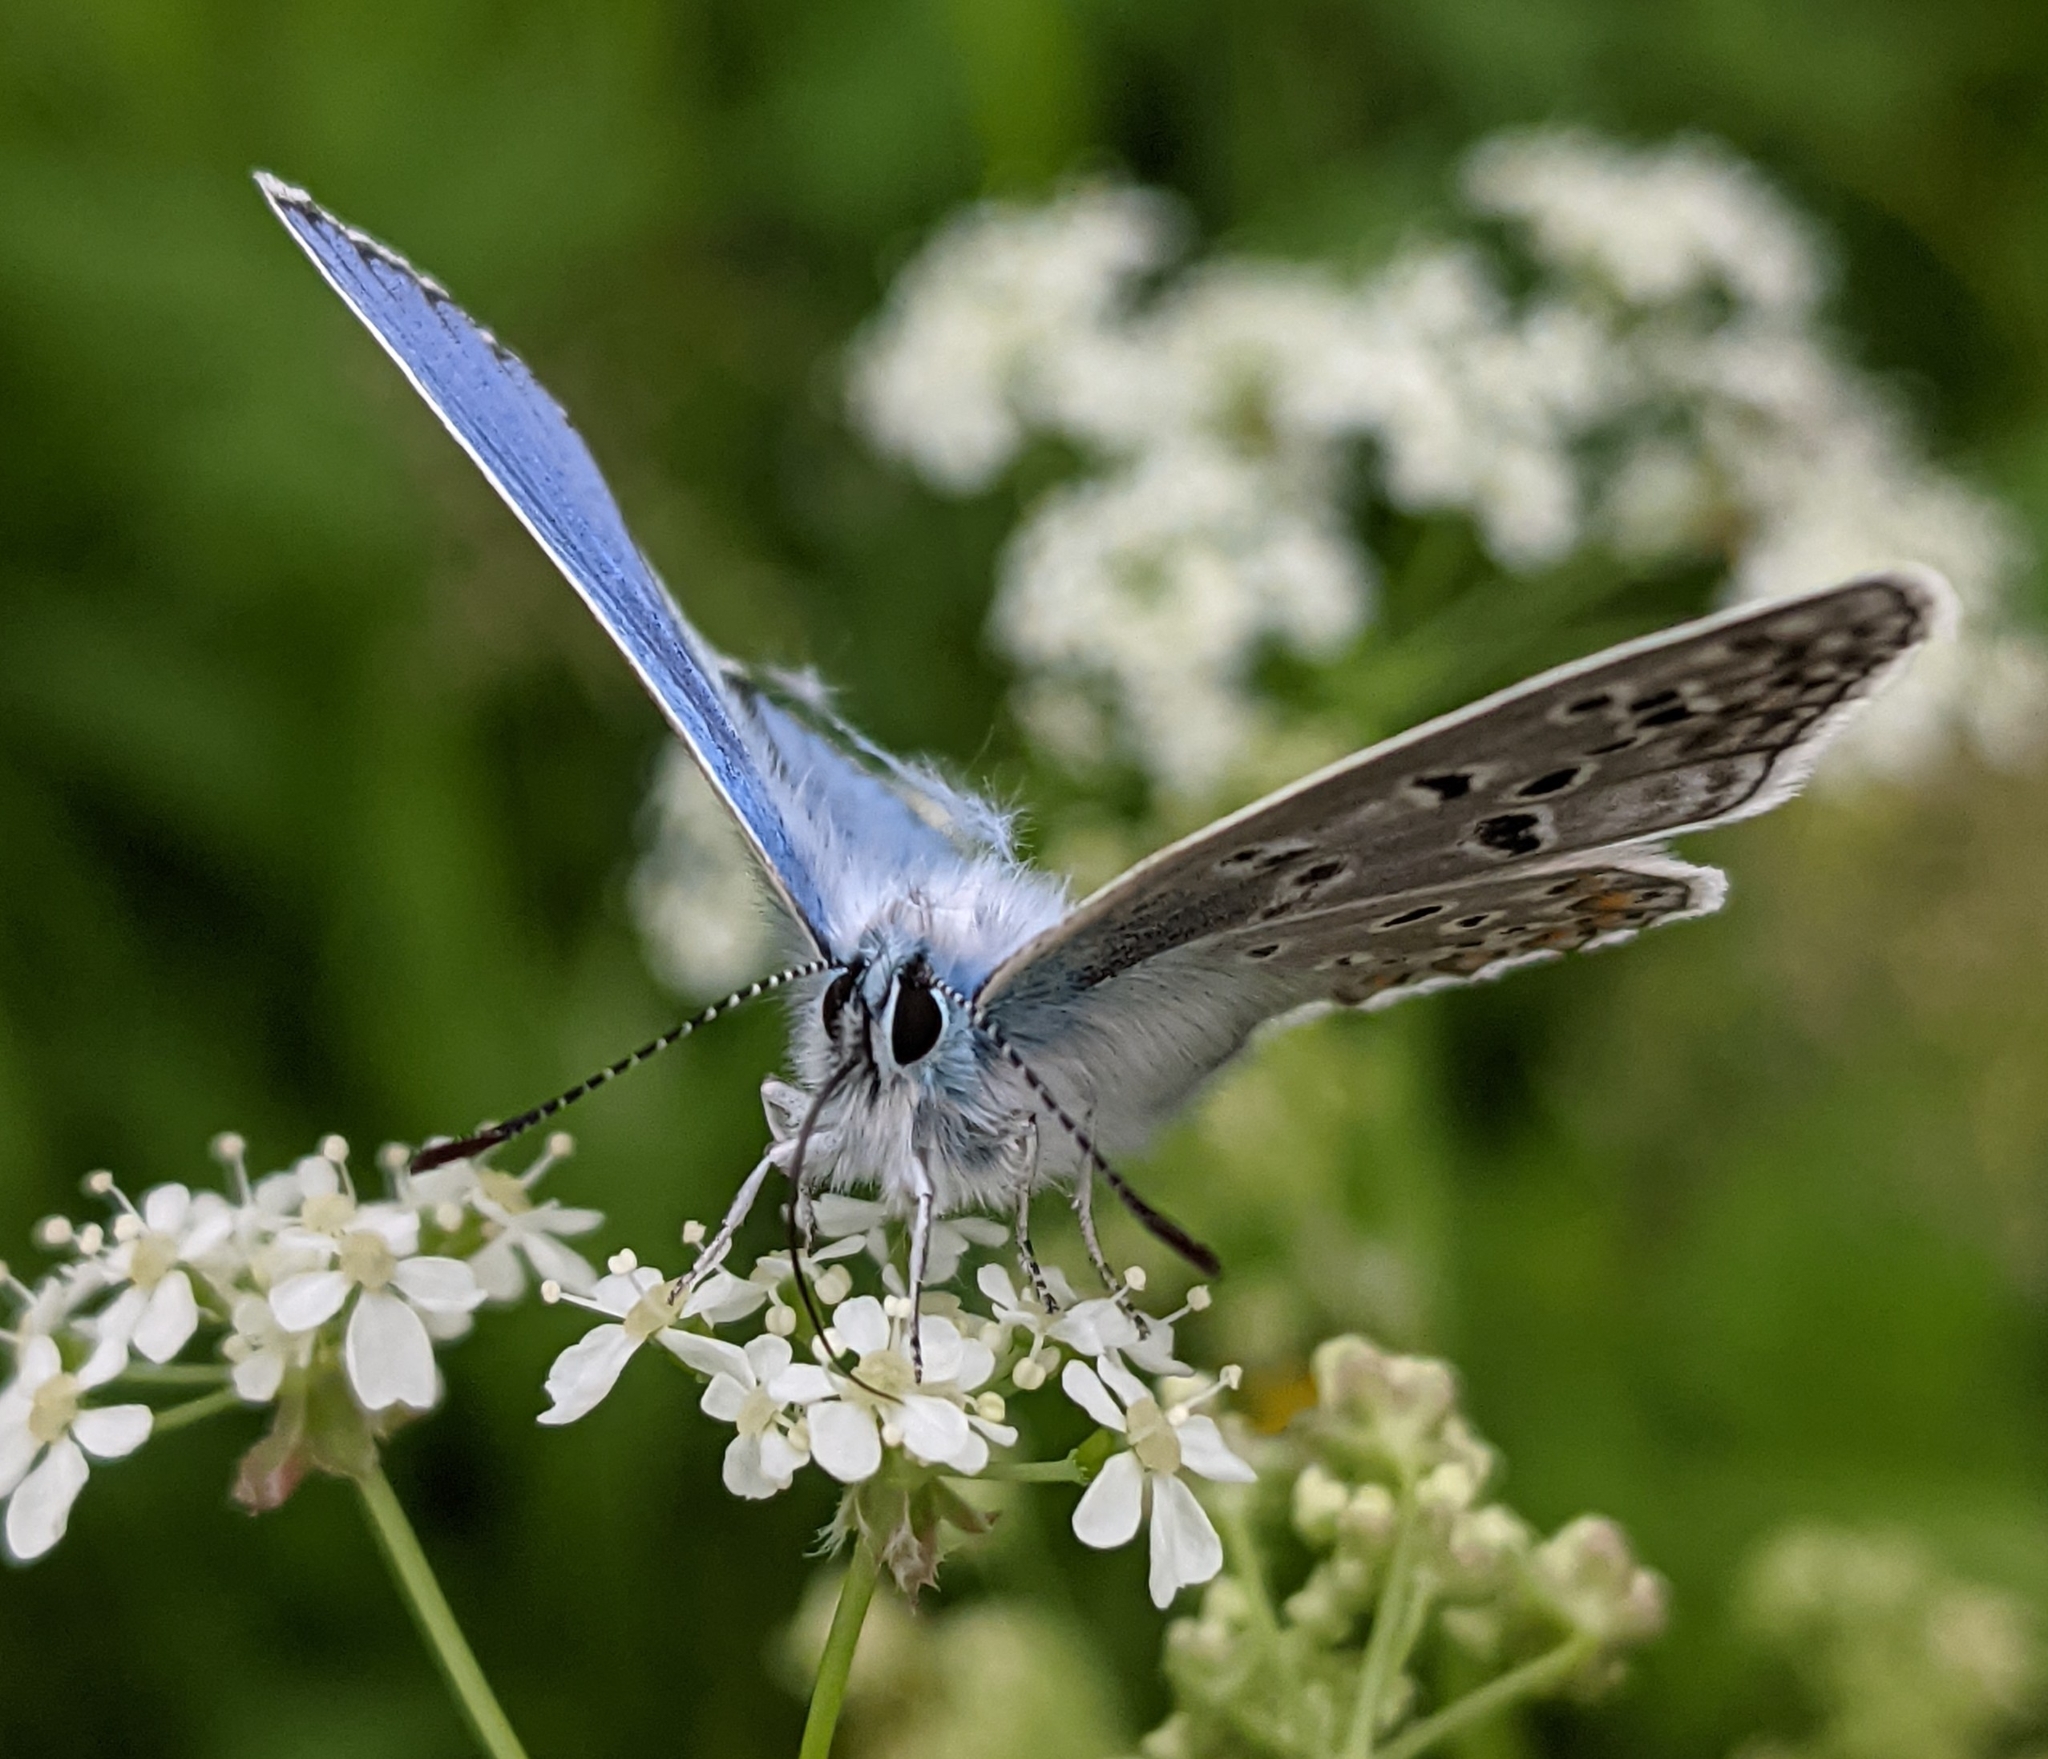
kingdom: Animalia
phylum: Arthropoda
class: Insecta
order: Lepidoptera
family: Lycaenidae
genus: Polyommatus
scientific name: Polyommatus icarus
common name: Common blue
